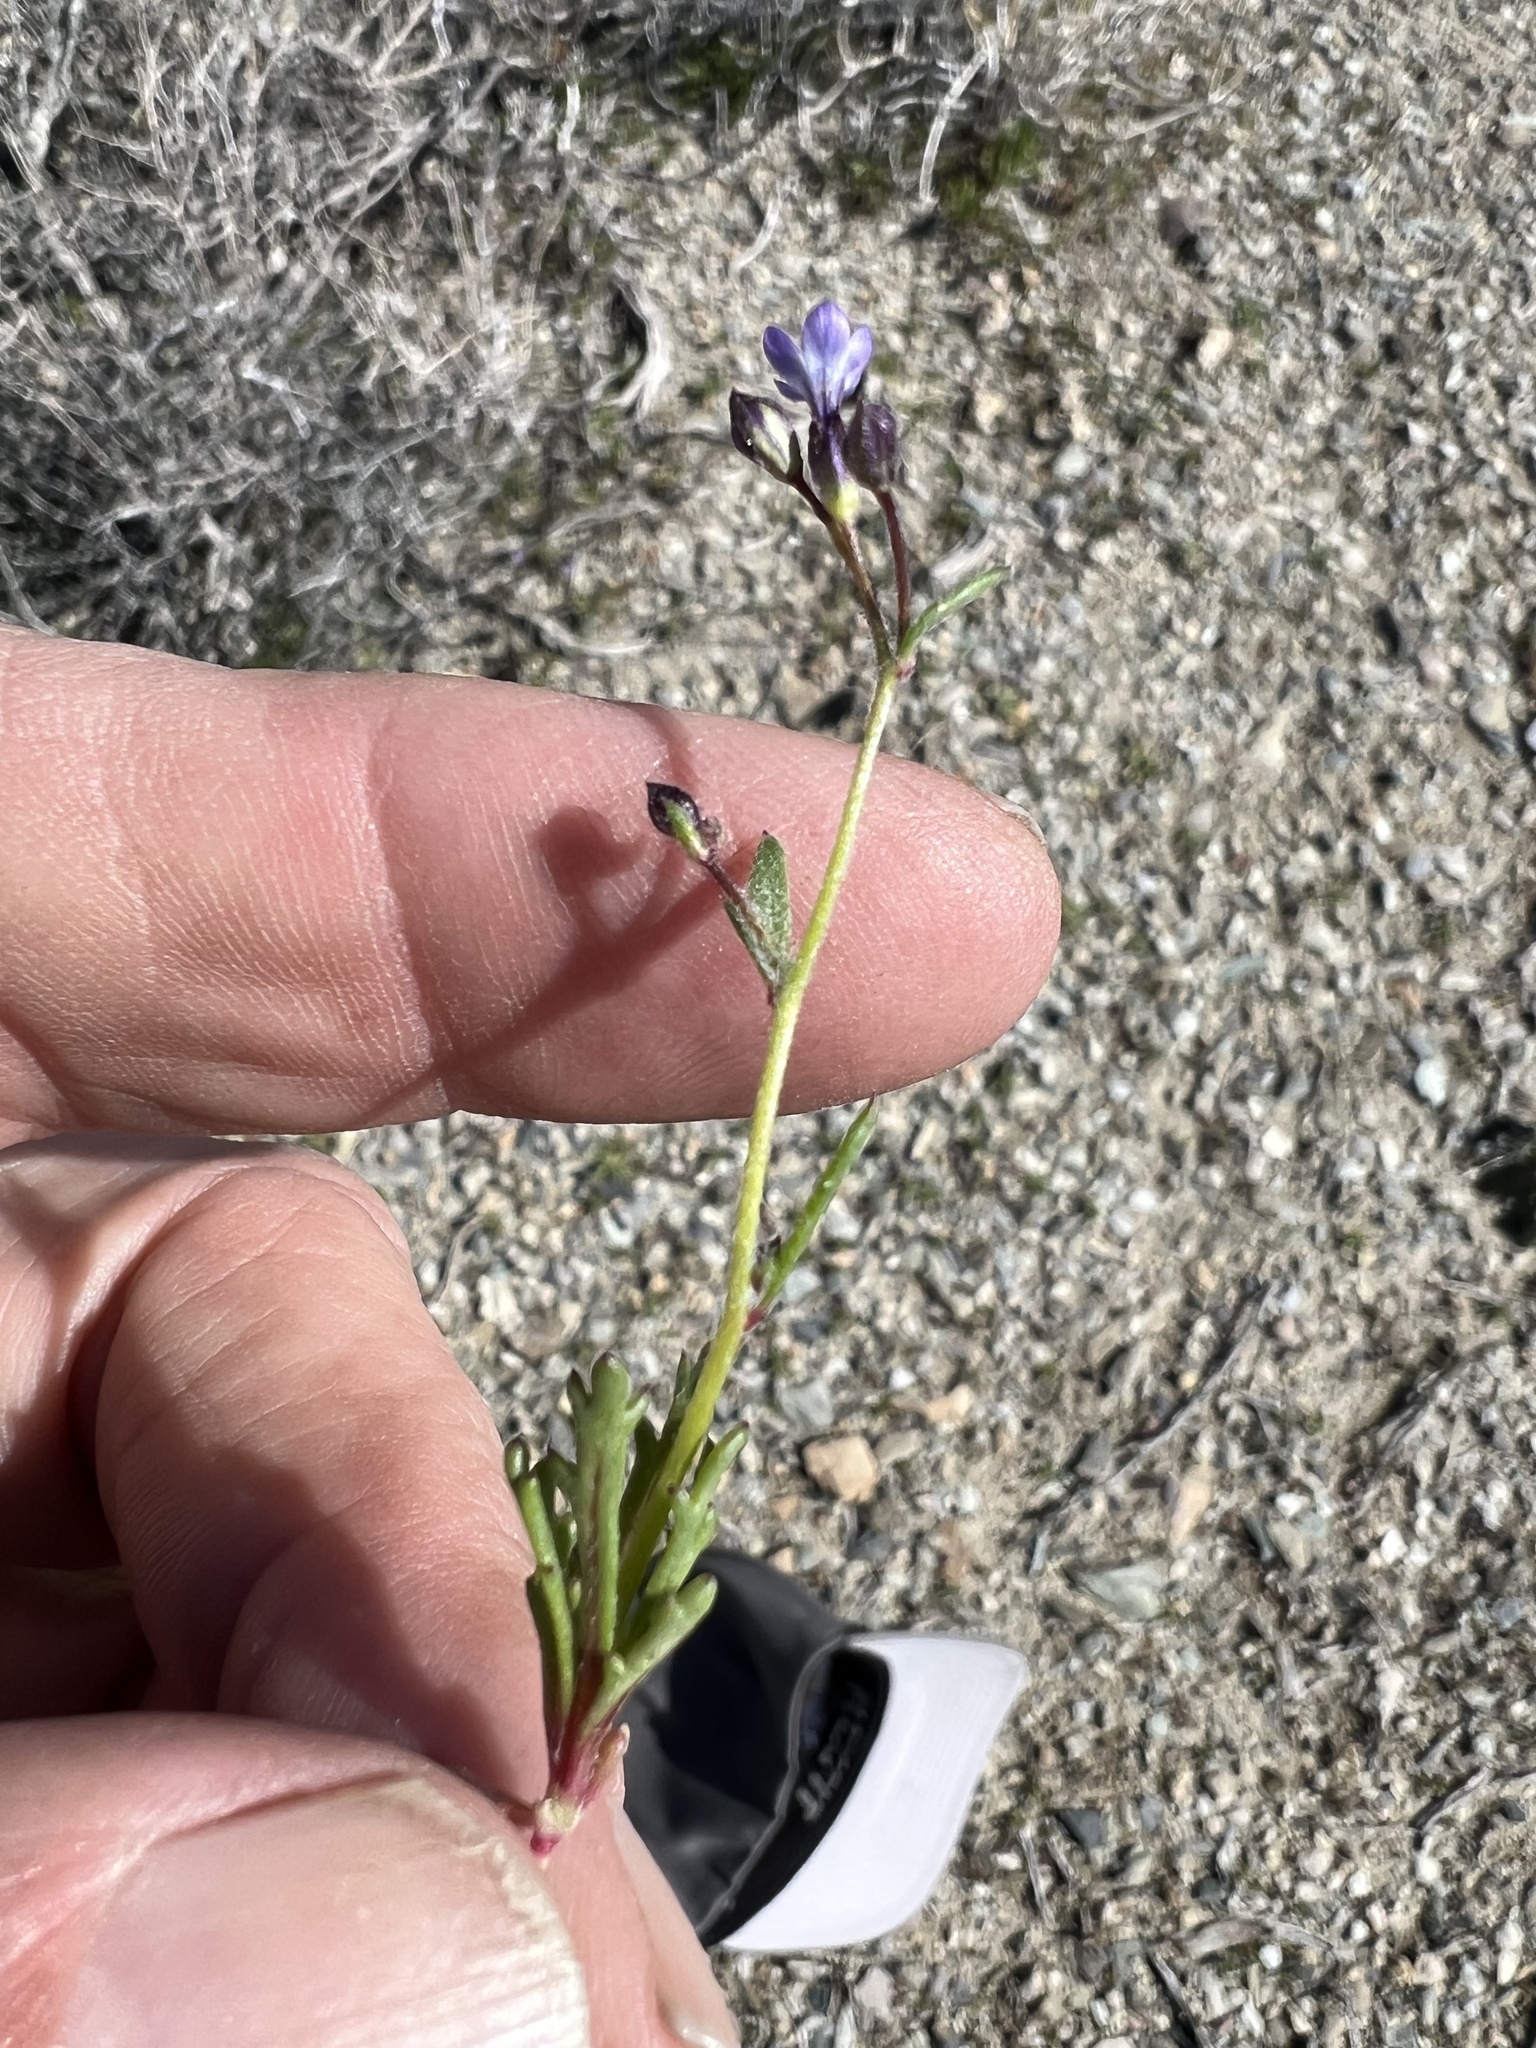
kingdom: Plantae
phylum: Tracheophyta
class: Magnoliopsida
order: Ericales
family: Polemoniaceae
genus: Gilia
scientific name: Gilia transmontana
